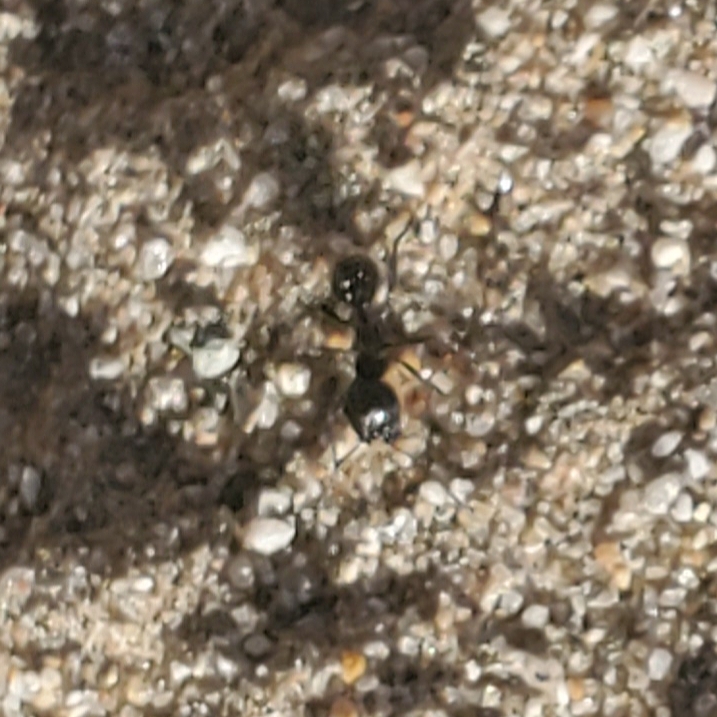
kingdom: Animalia
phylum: Arthropoda
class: Insecta
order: Hymenoptera
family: Formicidae
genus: Messor
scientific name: Messor pergandei
